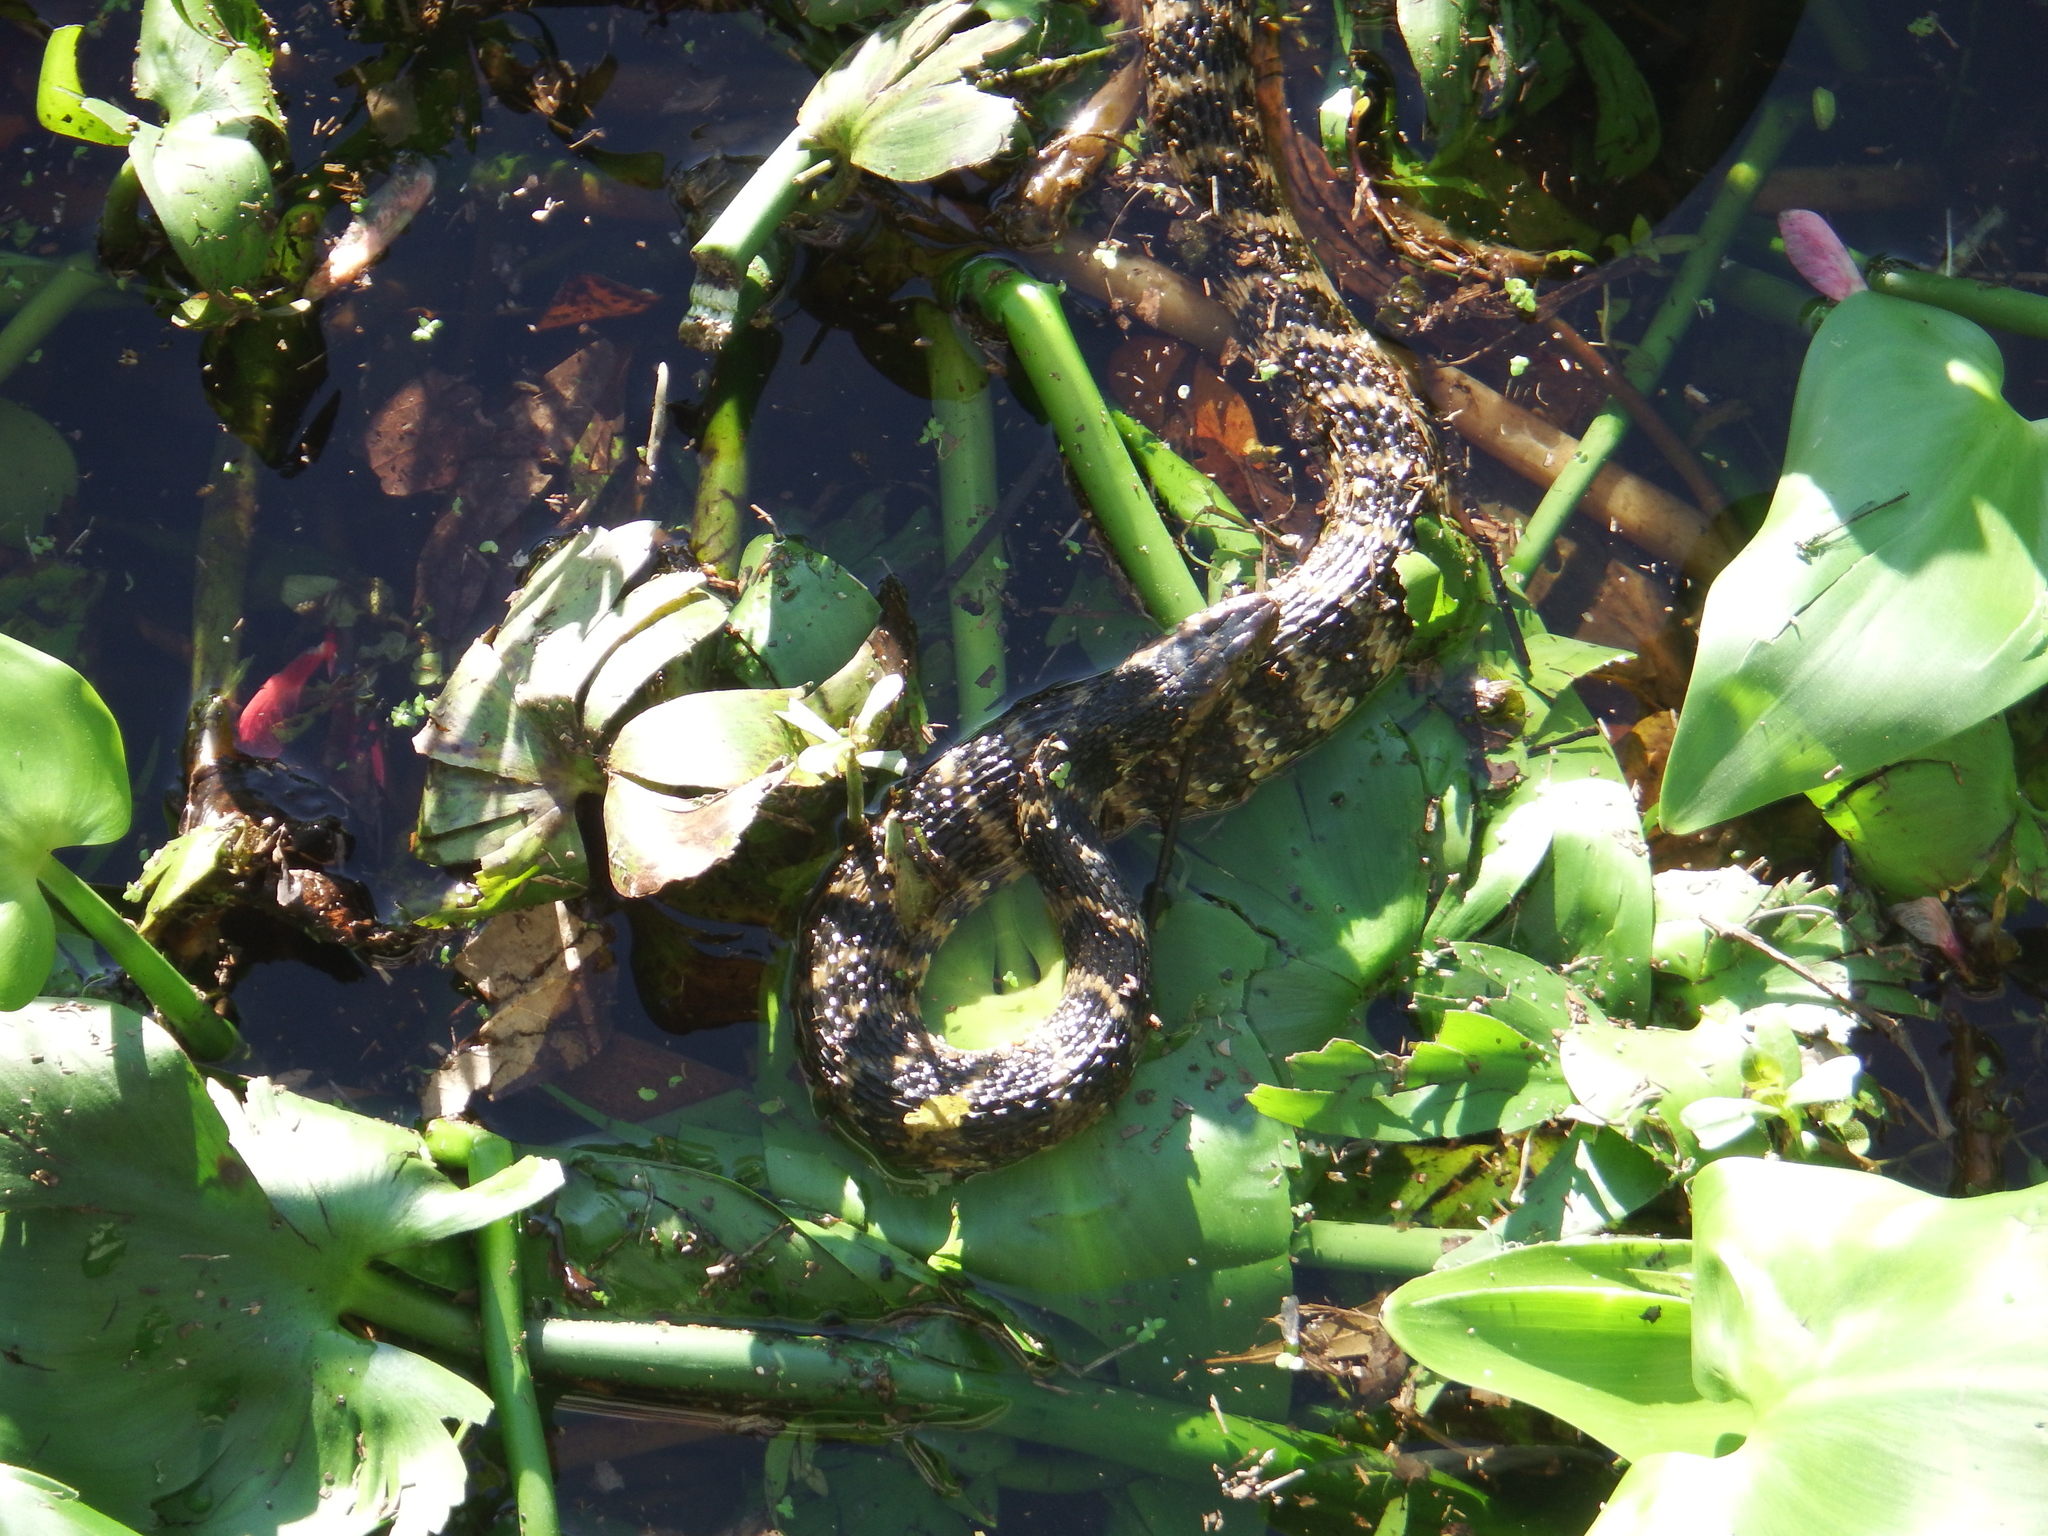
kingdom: Animalia
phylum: Chordata
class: Squamata
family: Colubridae
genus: Nerodia
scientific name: Nerodia fasciata
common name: Southern water snake
